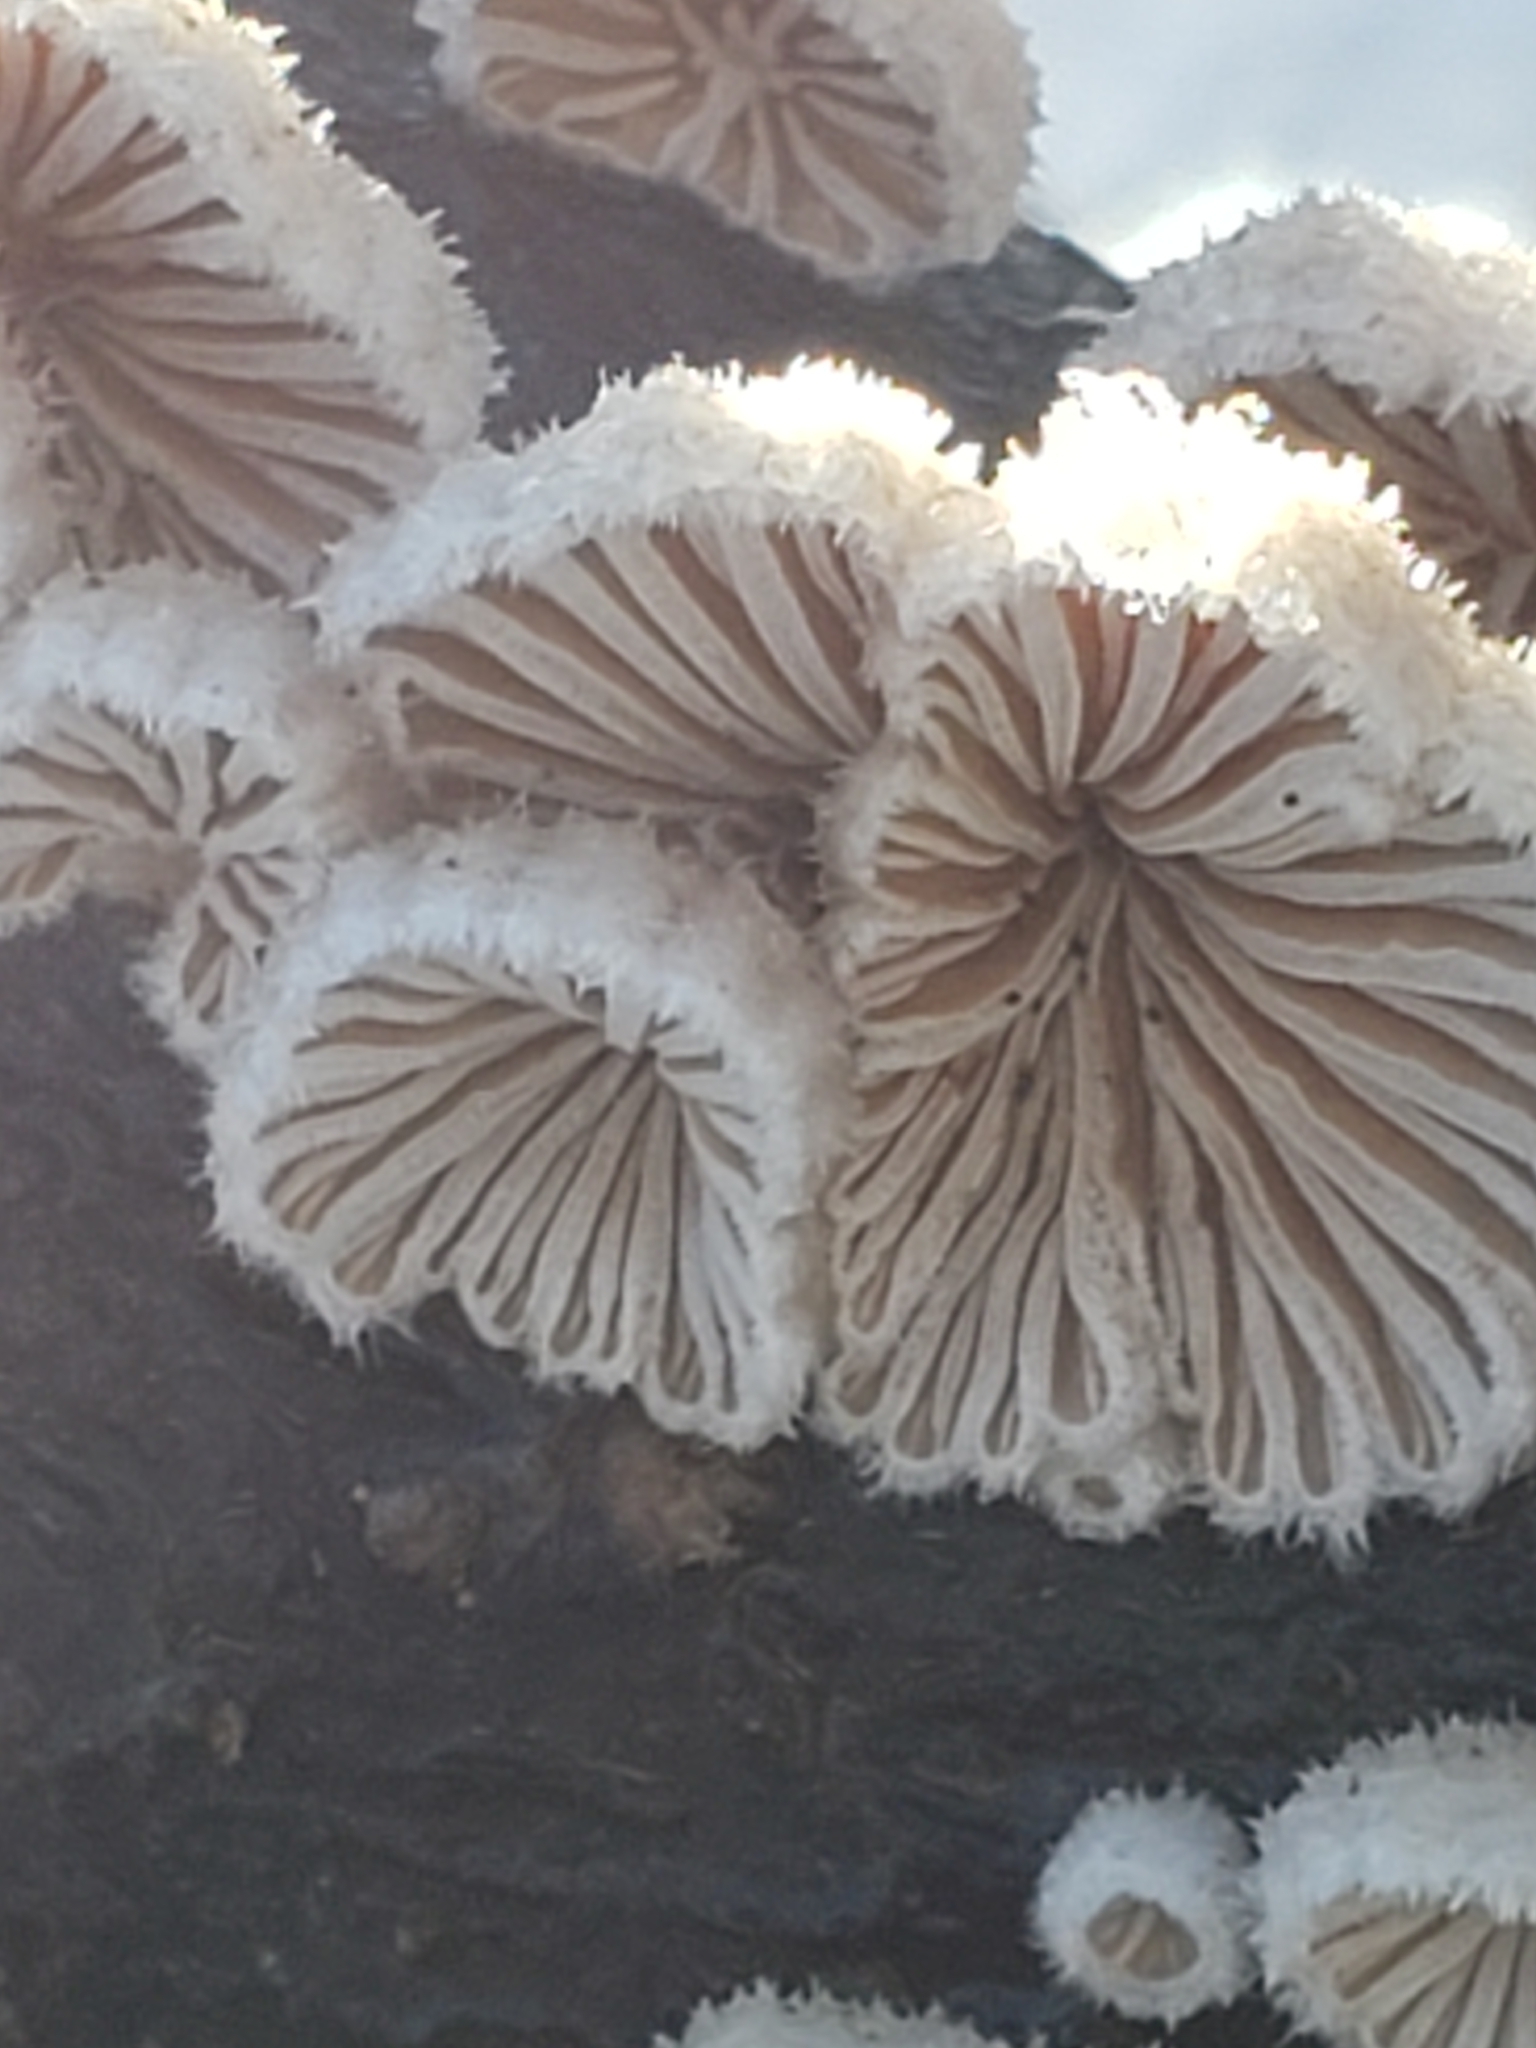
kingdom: Fungi
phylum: Basidiomycota
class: Agaricomycetes
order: Agaricales
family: Schizophyllaceae
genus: Schizophyllum
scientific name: Schizophyllum commune
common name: Common porecrust
